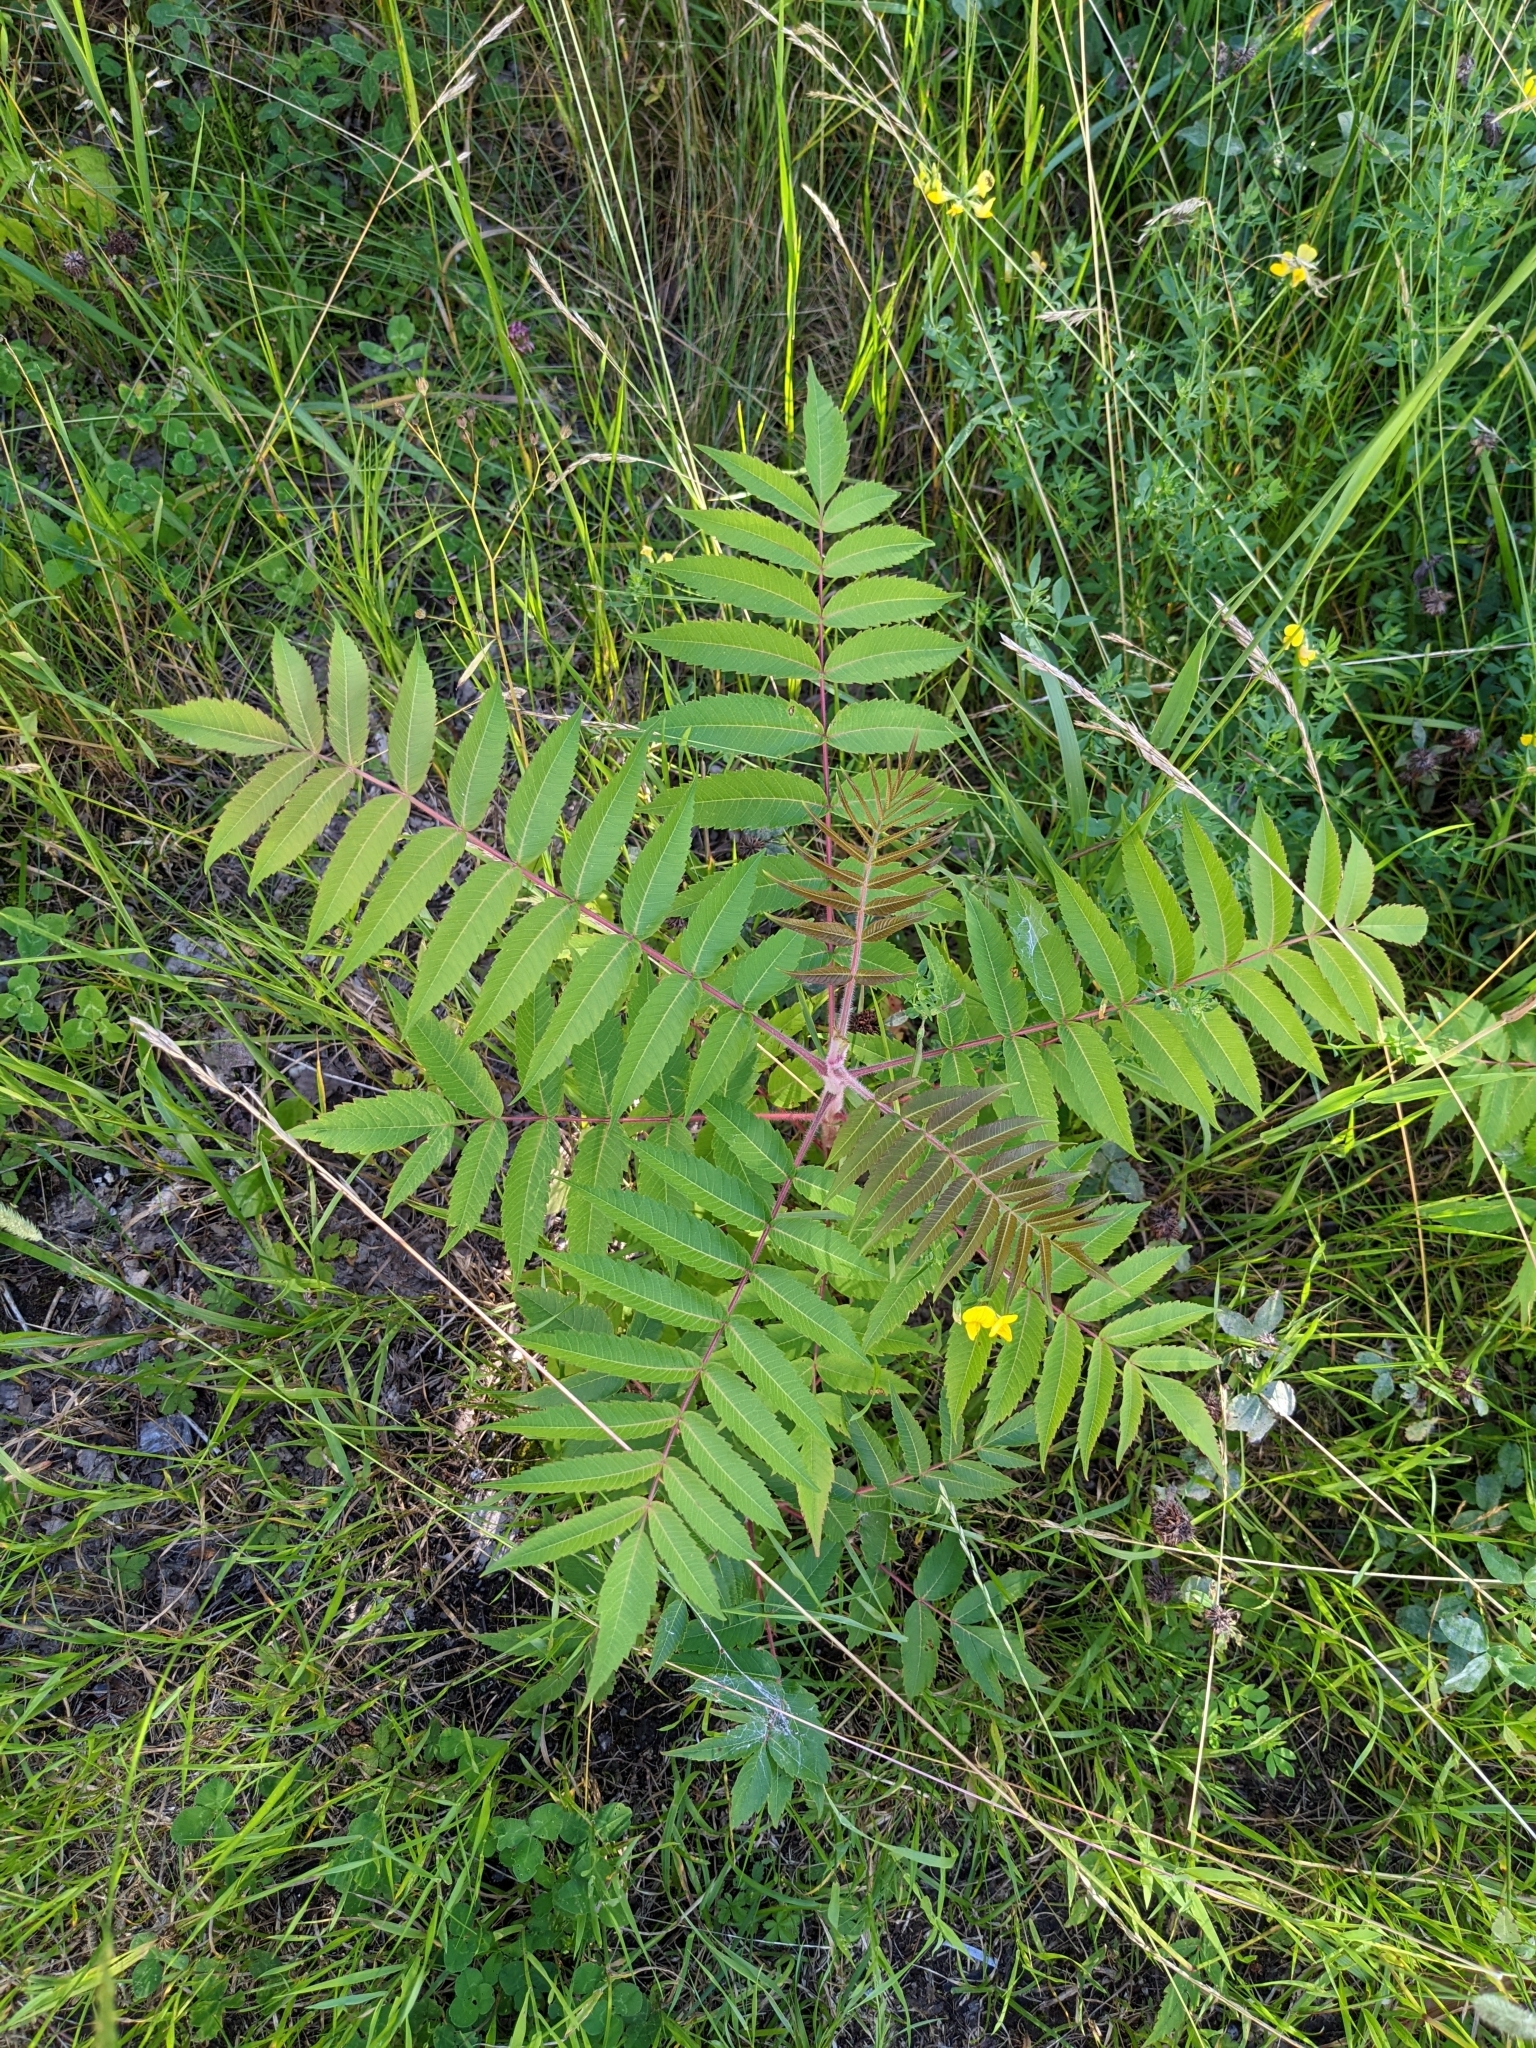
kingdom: Plantae
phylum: Tracheophyta
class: Magnoliopsida
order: Sapindales
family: Anacardiaceae
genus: Rhus
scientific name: Rhus typhina
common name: Staghorn sumac
